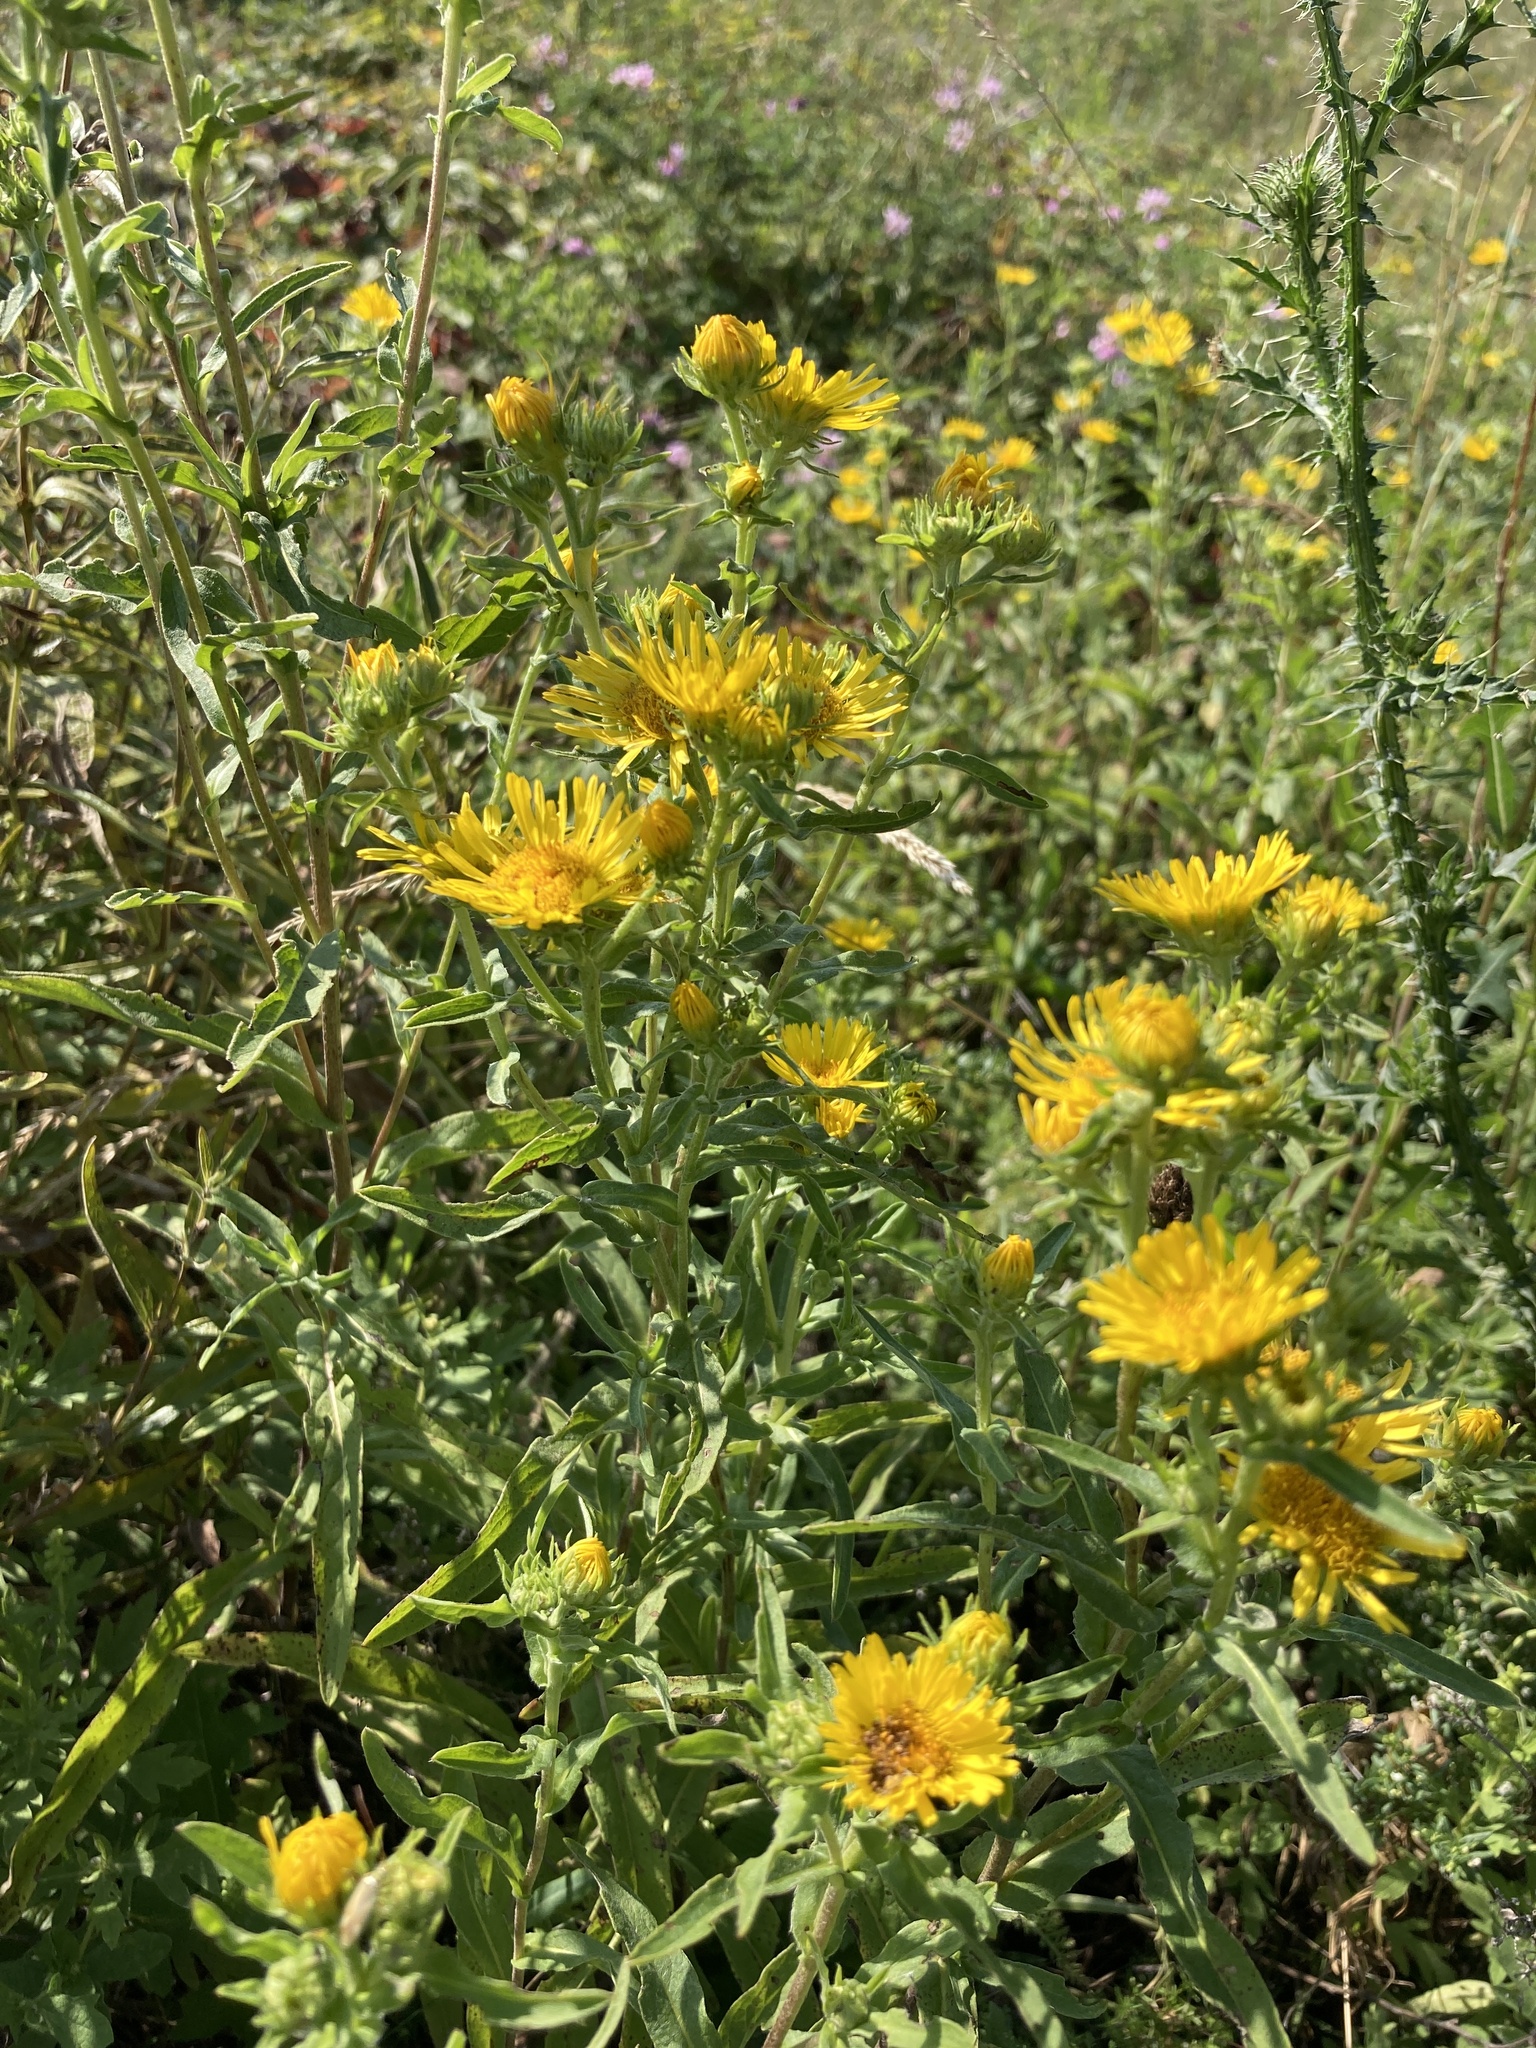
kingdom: Plantae
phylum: Tracheophyta
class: Magnoliopsida
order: Asterales
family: Asteraceae
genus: Pentanema
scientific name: Pentanema britannicum
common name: British elecampane
